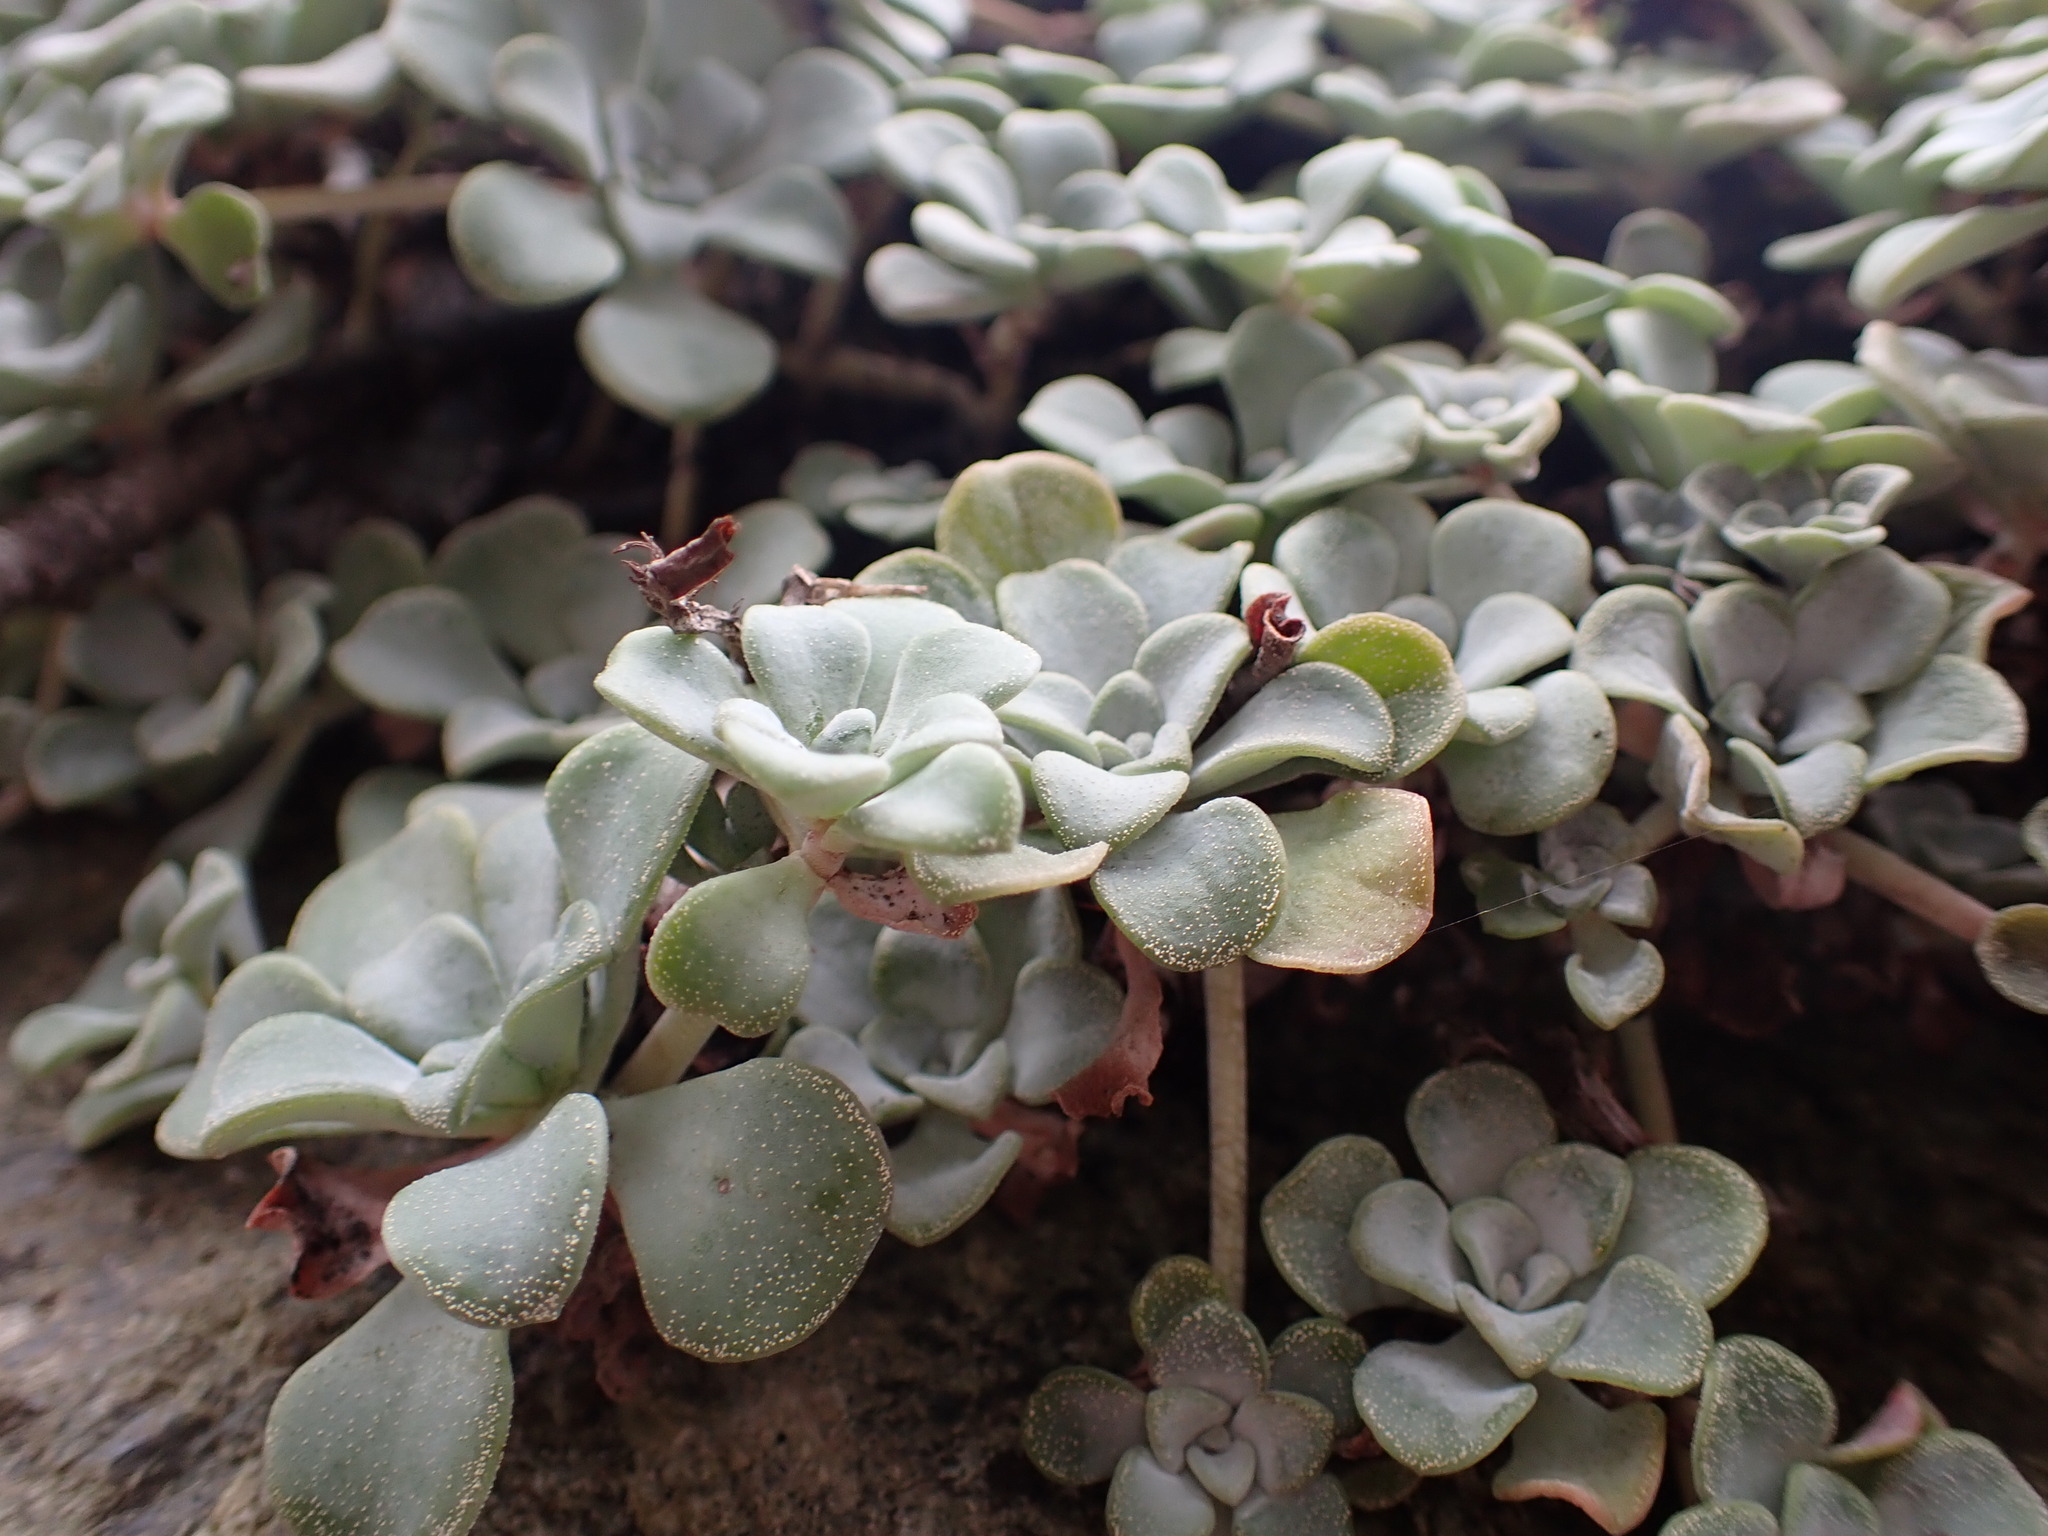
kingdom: Plantae
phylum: Tracheophyta
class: Magnoliopsida
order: Saxifragales
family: Crassulaceae
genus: Sedum
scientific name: Sedum spathulifolium
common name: Colorado stonecrop
